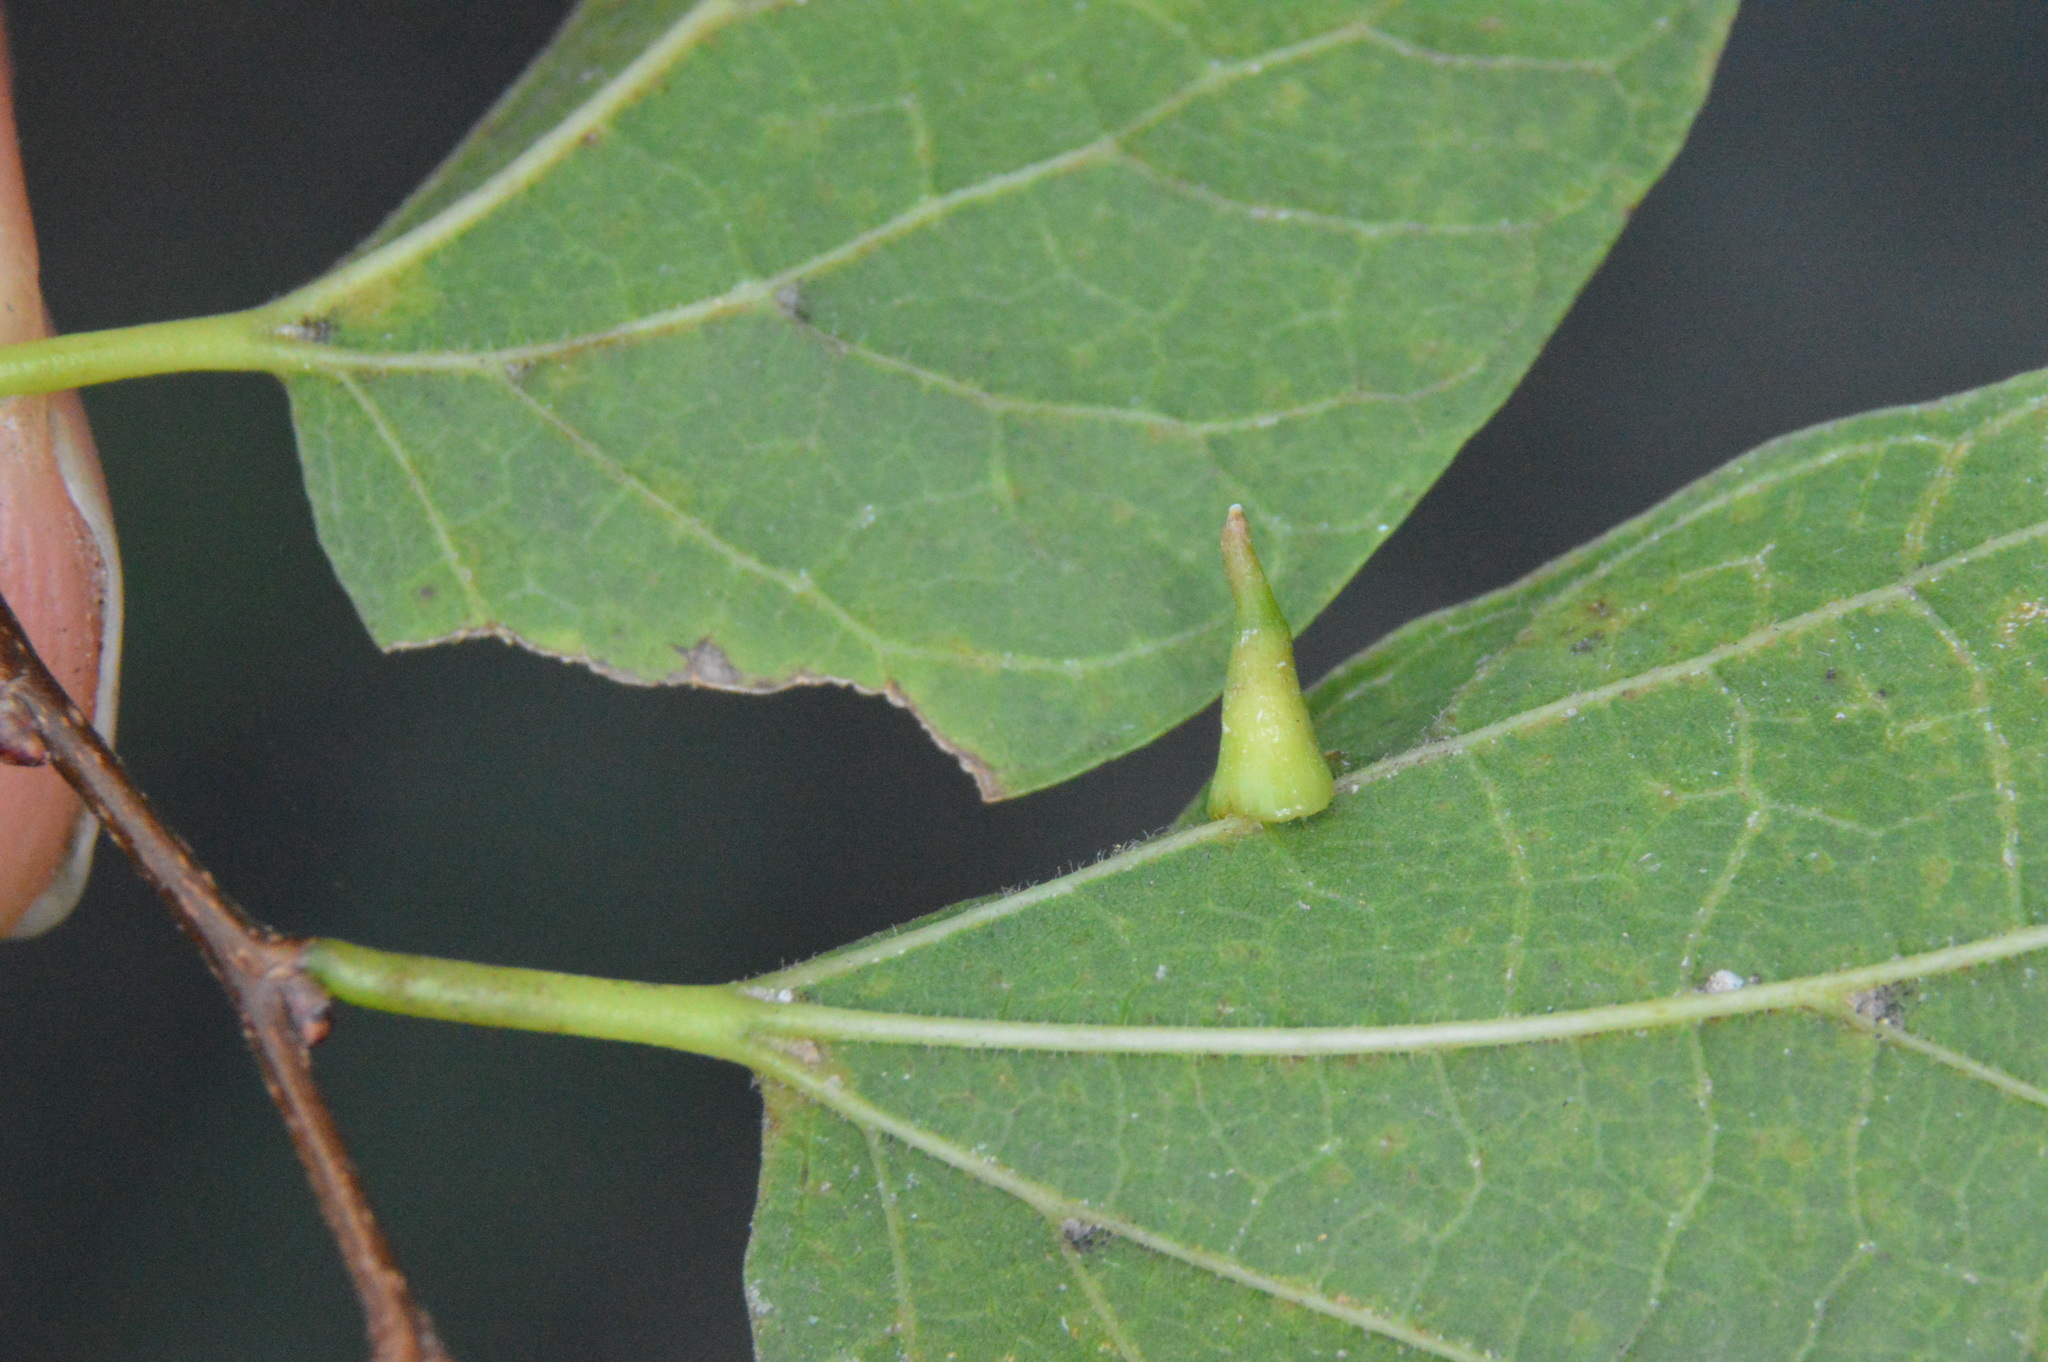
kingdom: Animalia
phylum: Arthropoda
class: Insecta
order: Diptera
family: Cecidomyiidae
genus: Celticecis
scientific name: Celticecis subulata
